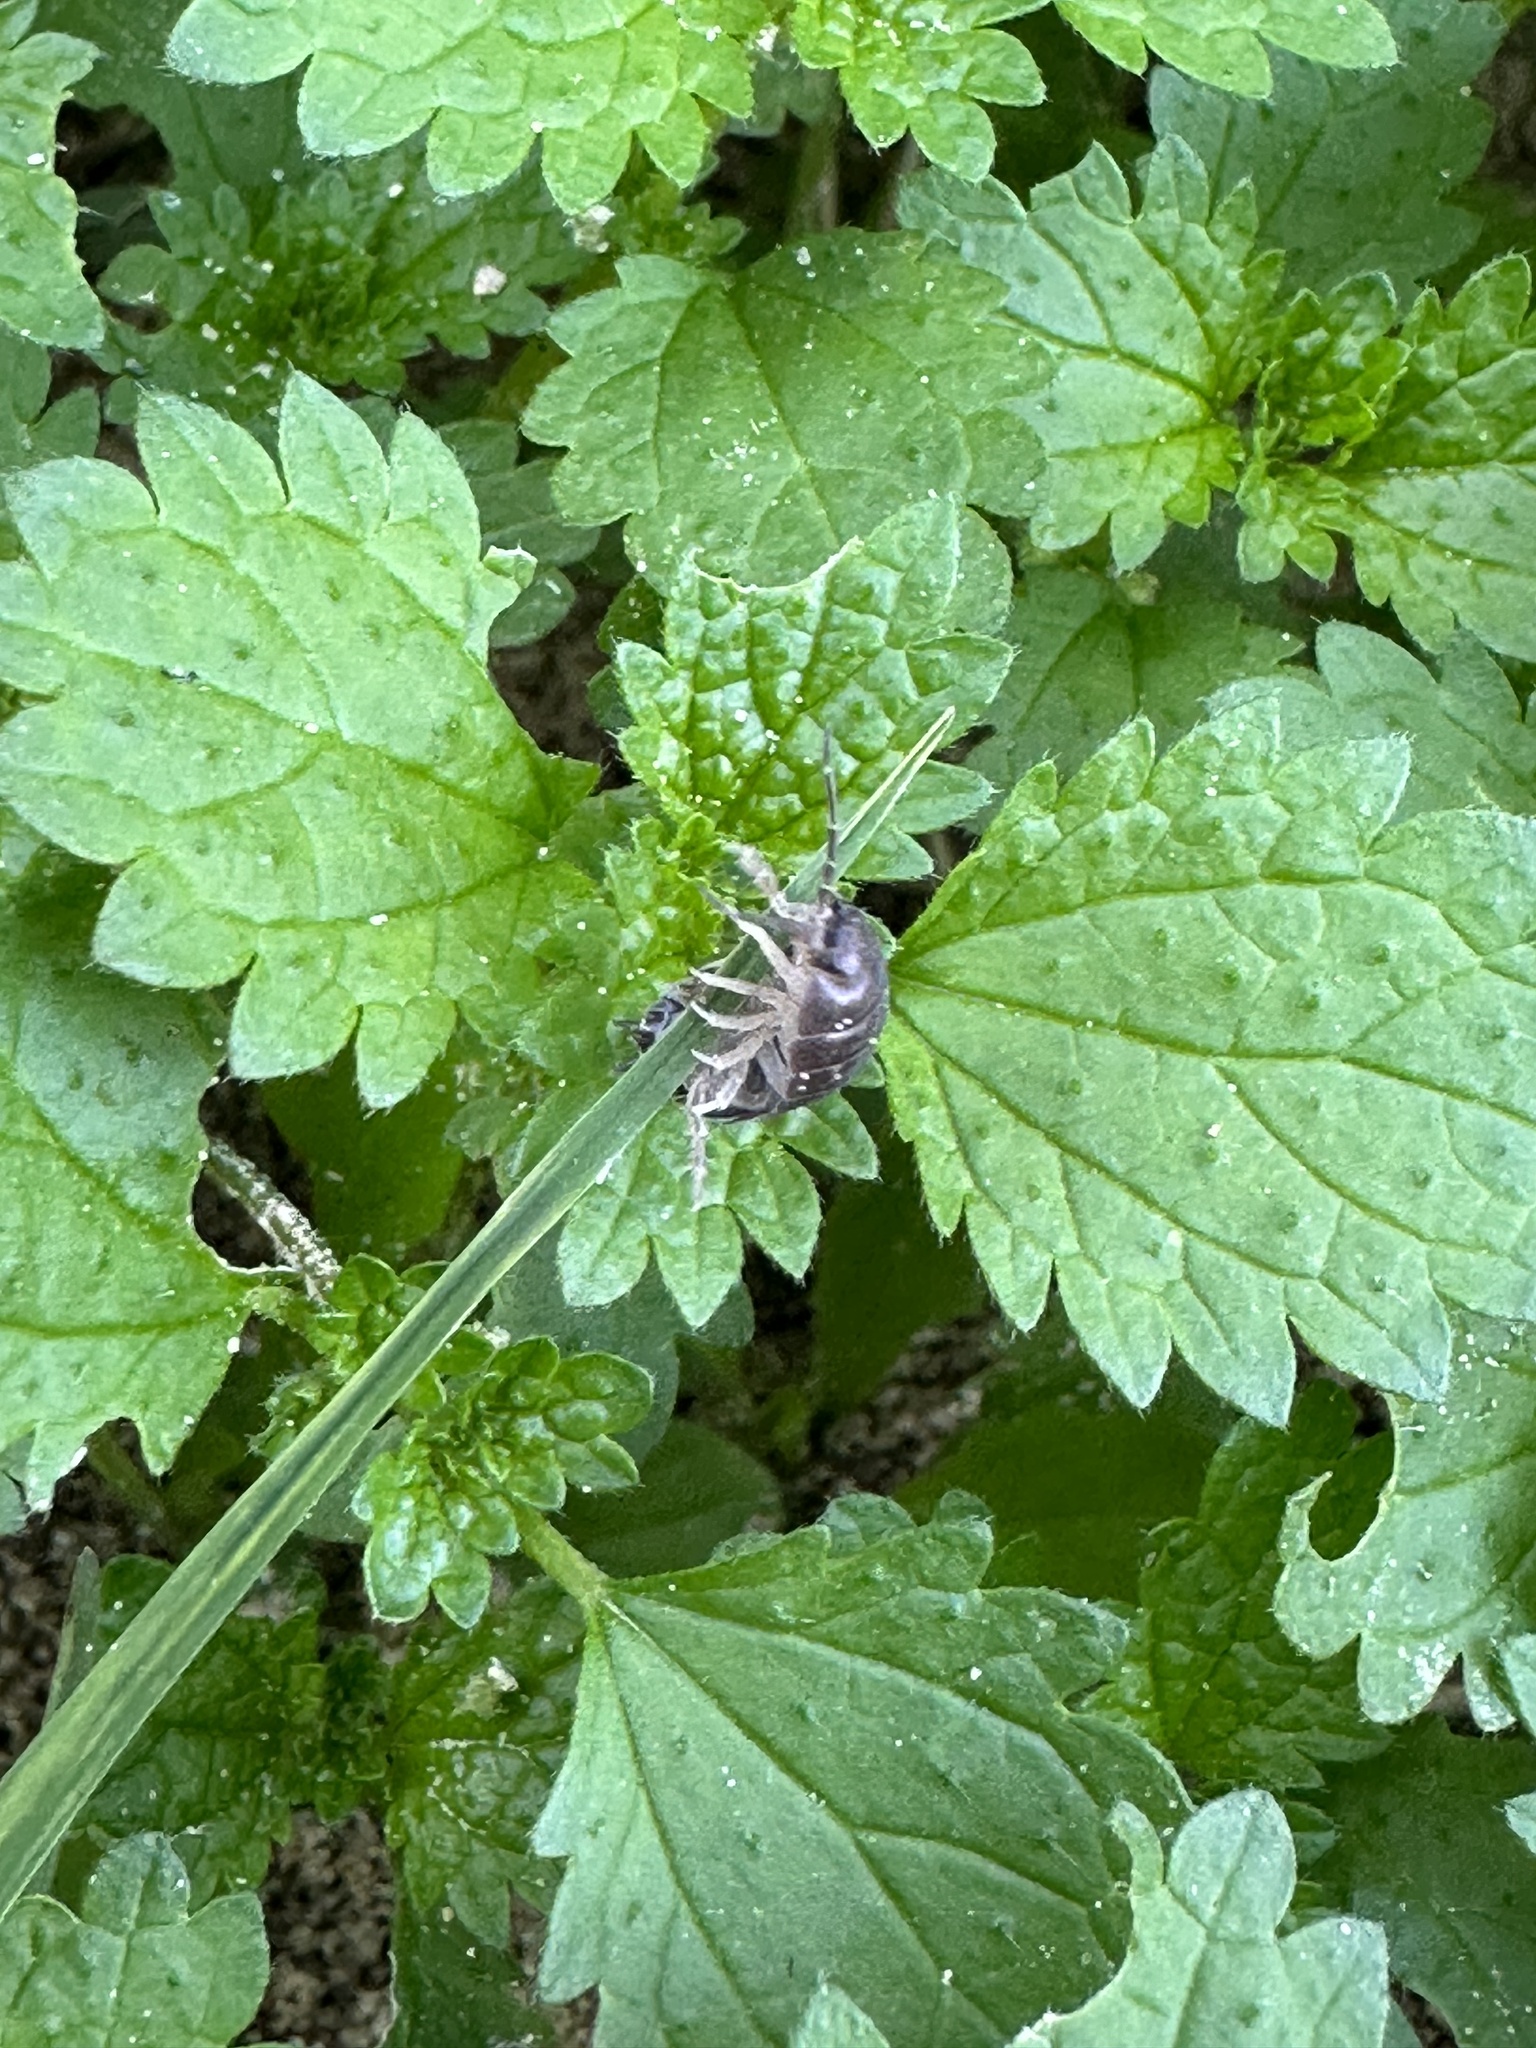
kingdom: Plantae
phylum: Tracheophyta
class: Magnoliopsida
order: Rosales
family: Urticaceae
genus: Urtica
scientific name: Urtica urens
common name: Dwarf nettle
